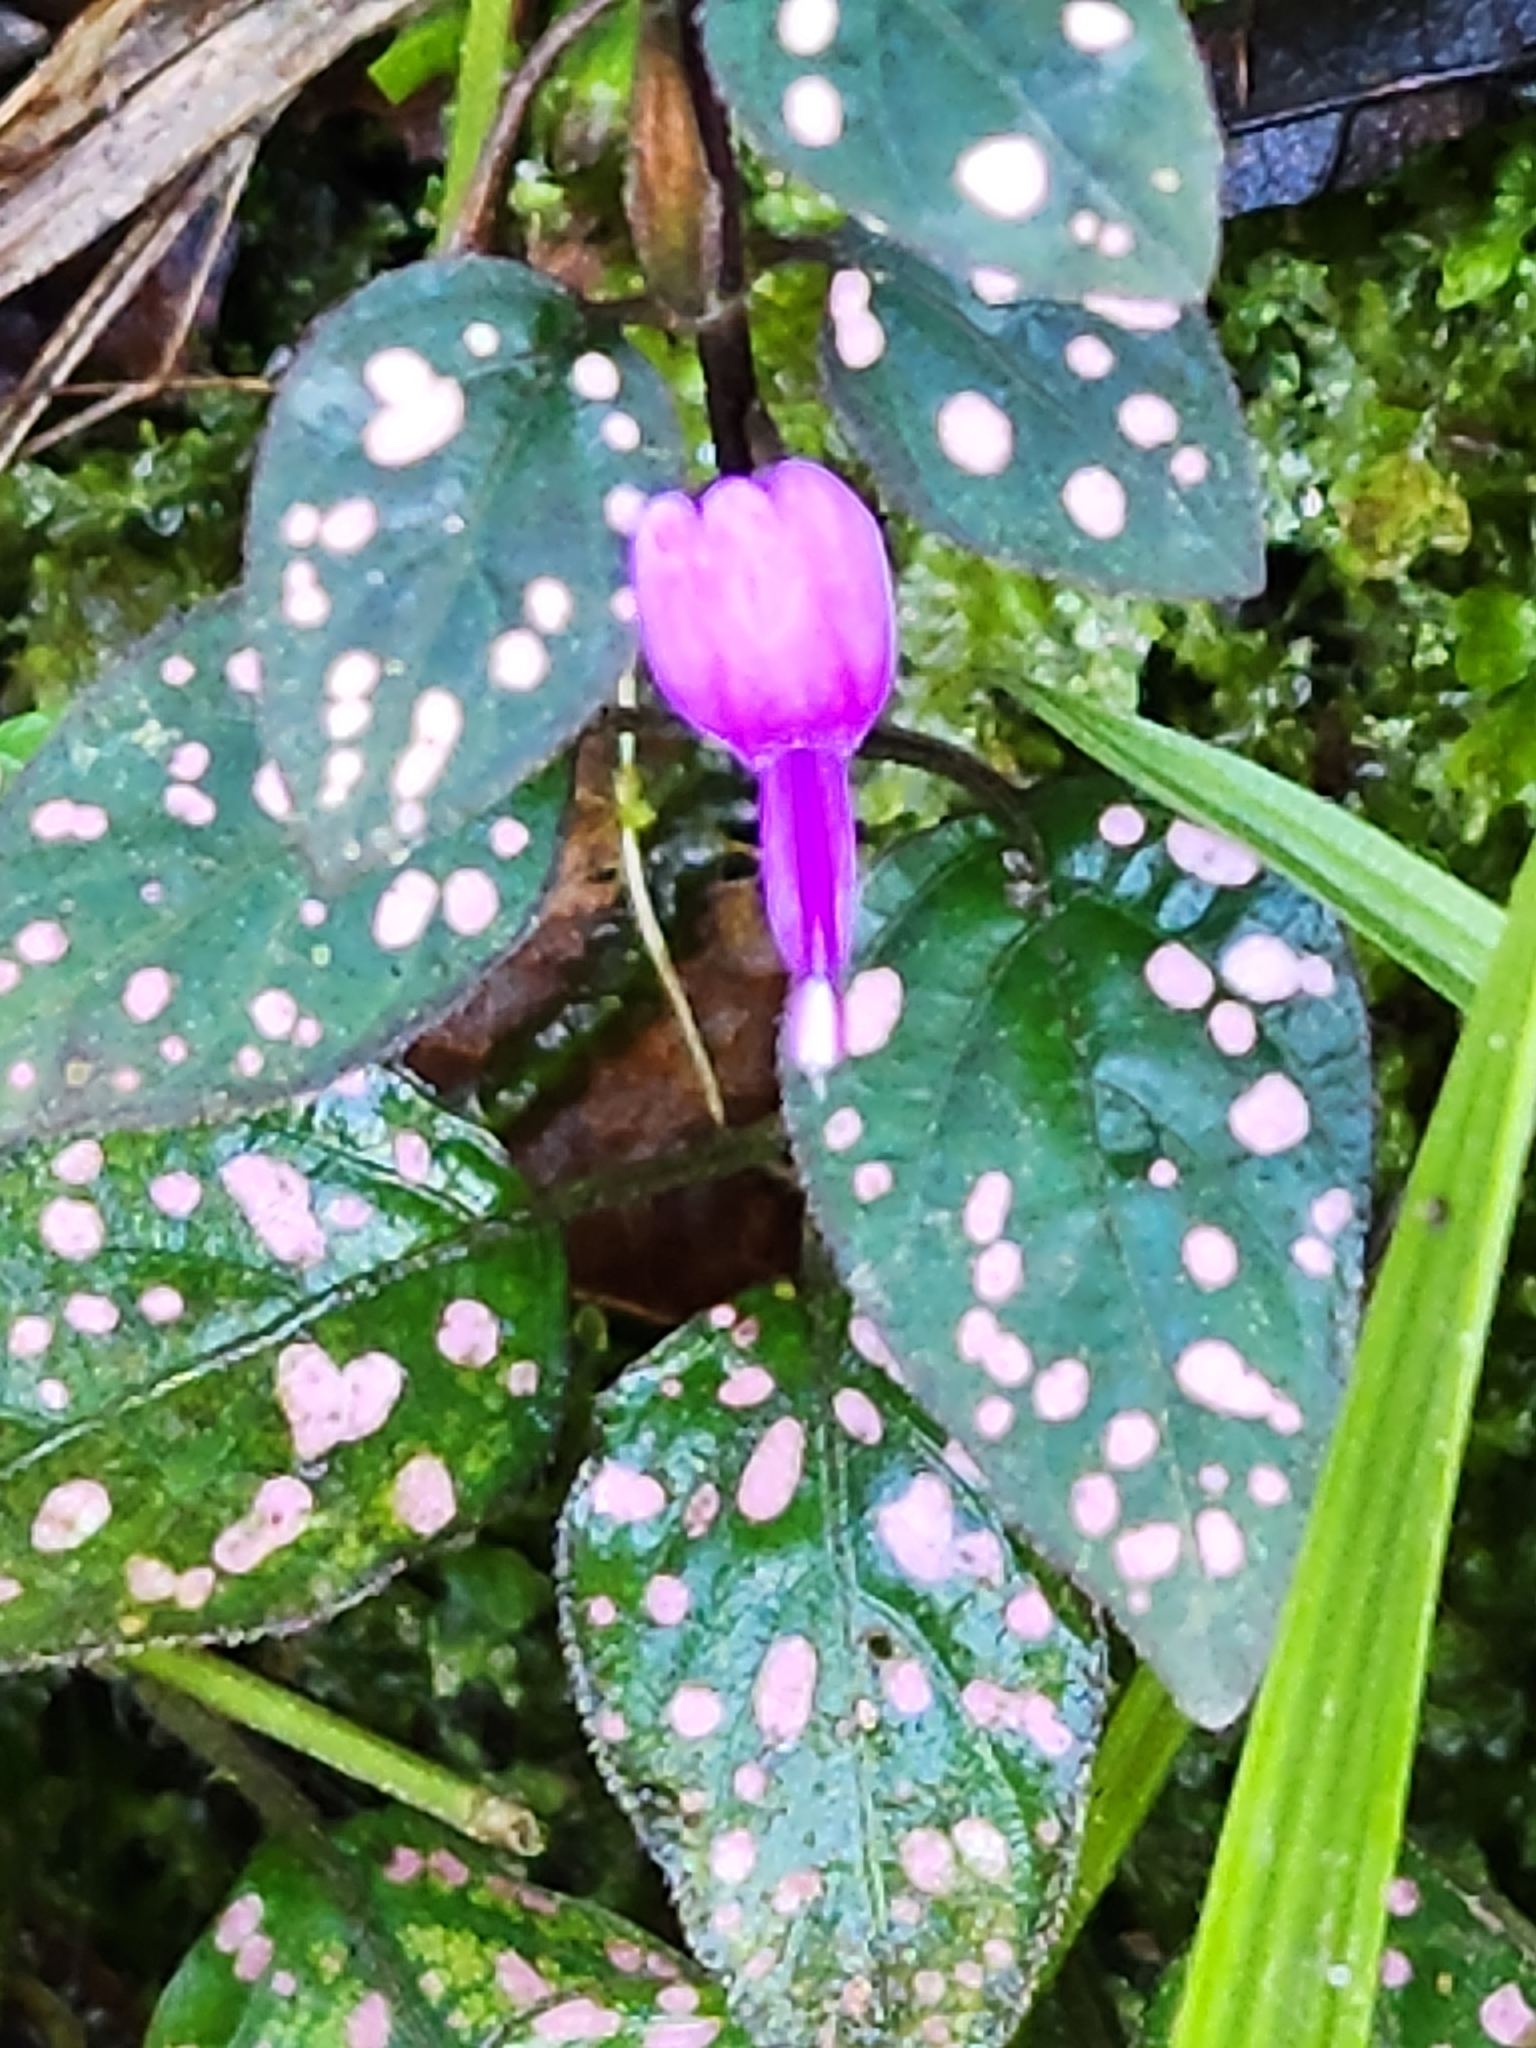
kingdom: Plantae
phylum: Tracheophyta
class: Magnoliopsida
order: Lamiales
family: Acanthaceae
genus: Hypoestes
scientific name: Hypoestes phyllostachya
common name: Polkadot-plant
